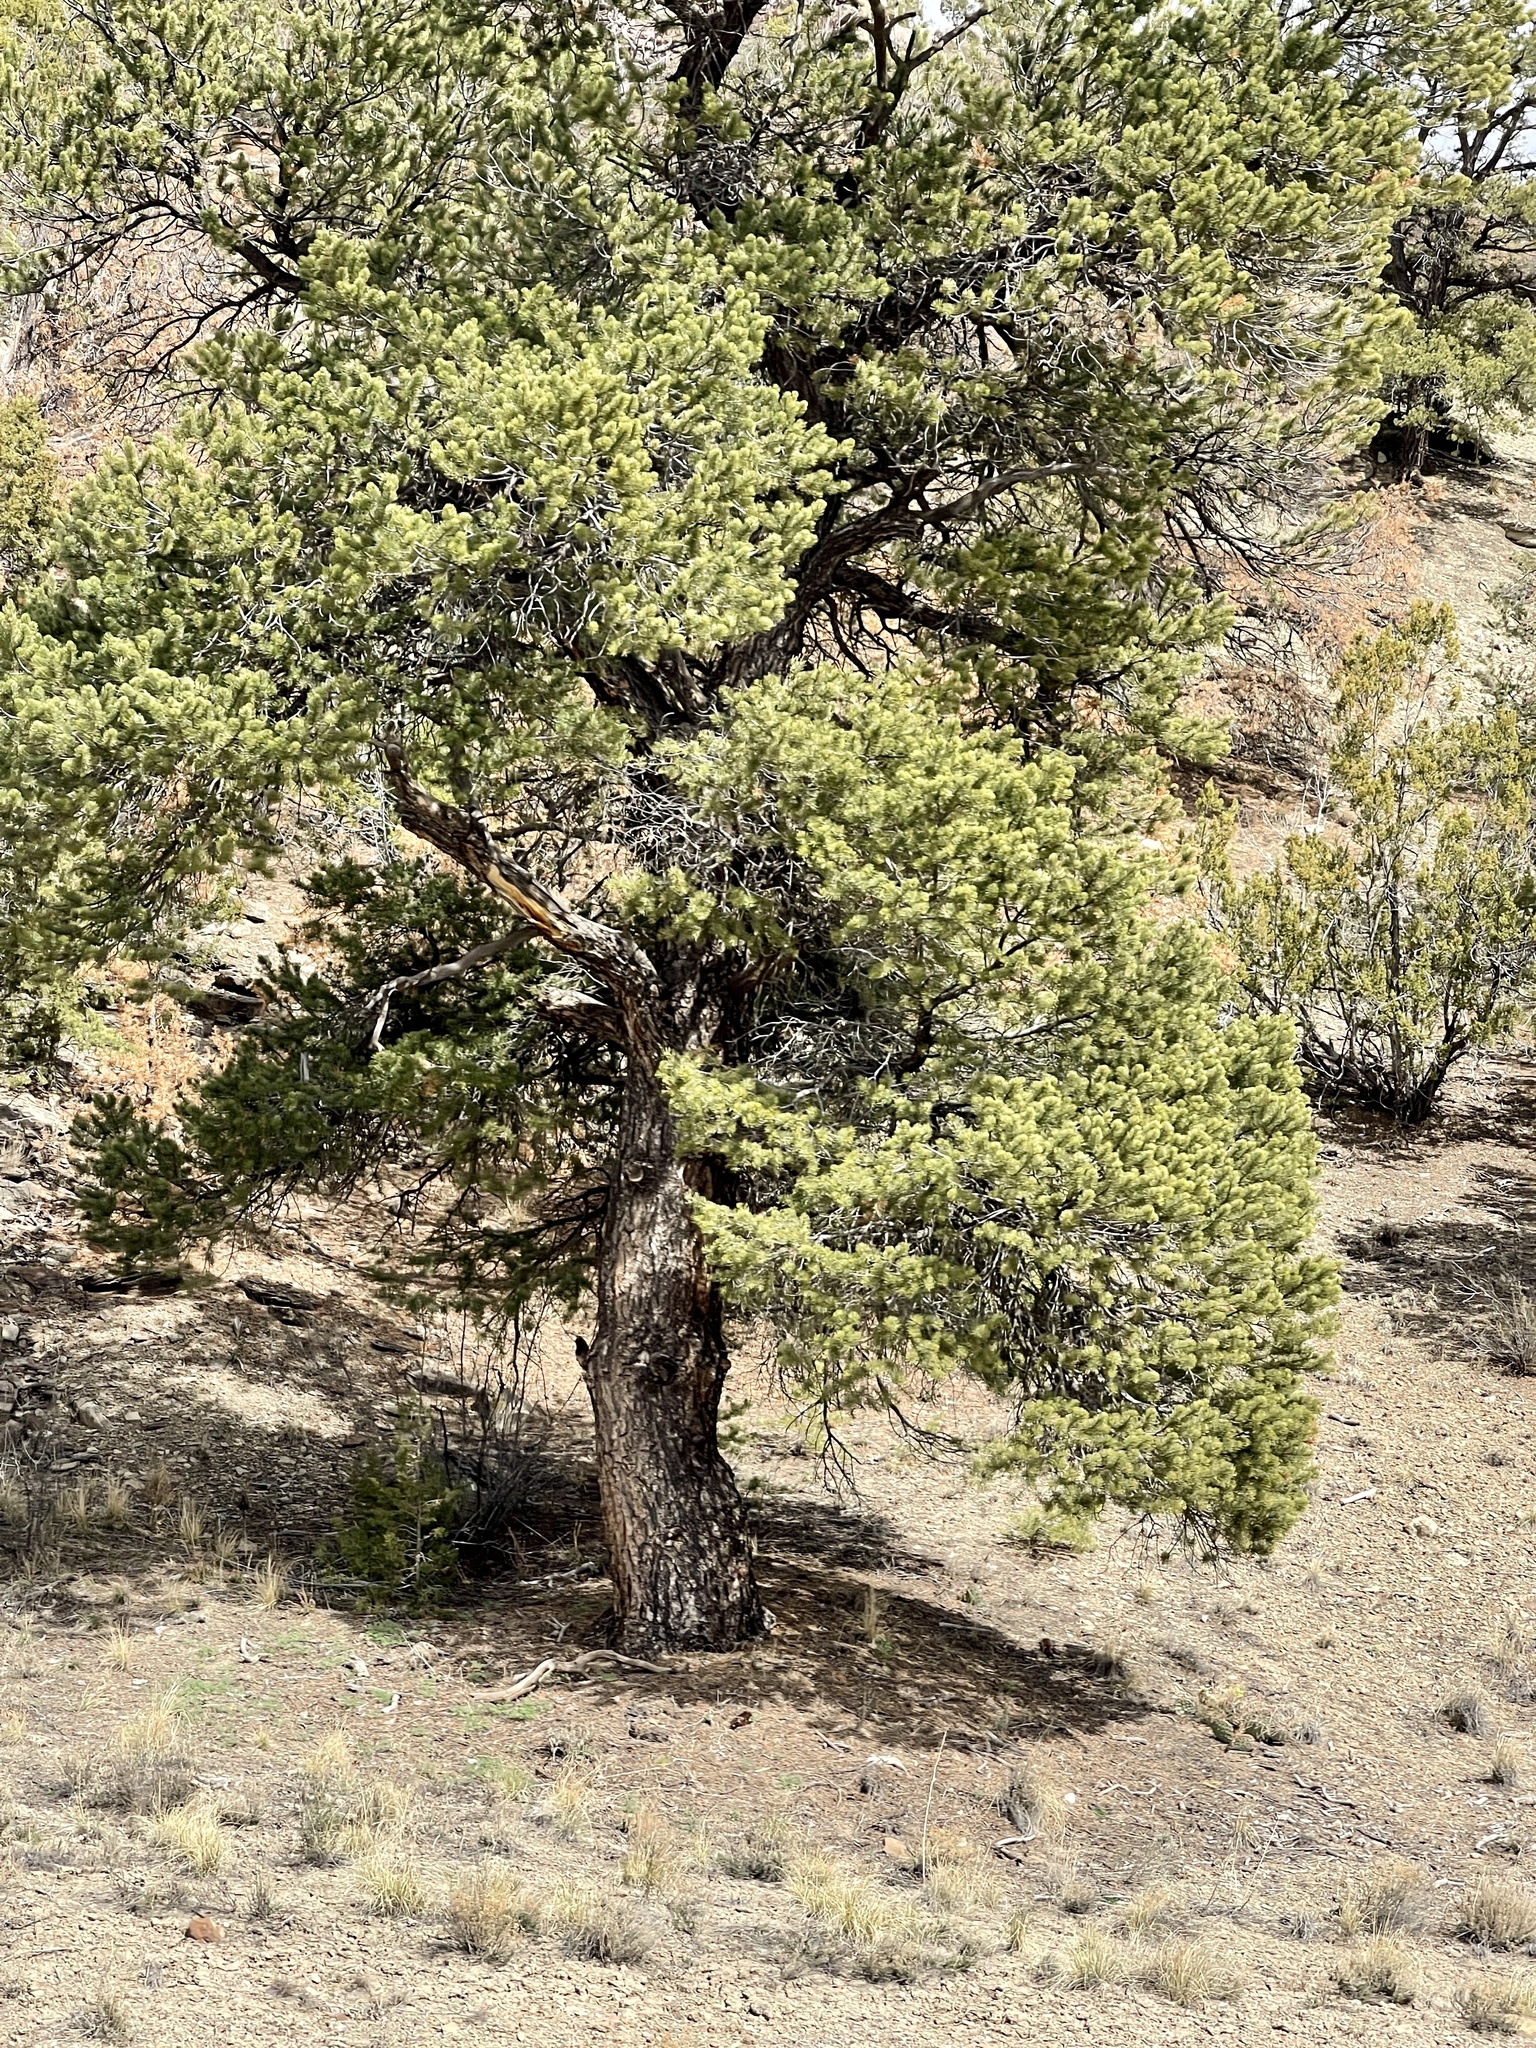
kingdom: Plantae
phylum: Tracheophyta
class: Pinopsida
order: Pinales
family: Pinaceae
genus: Pinus
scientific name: Pinus edulis
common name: Colorado pinyon
